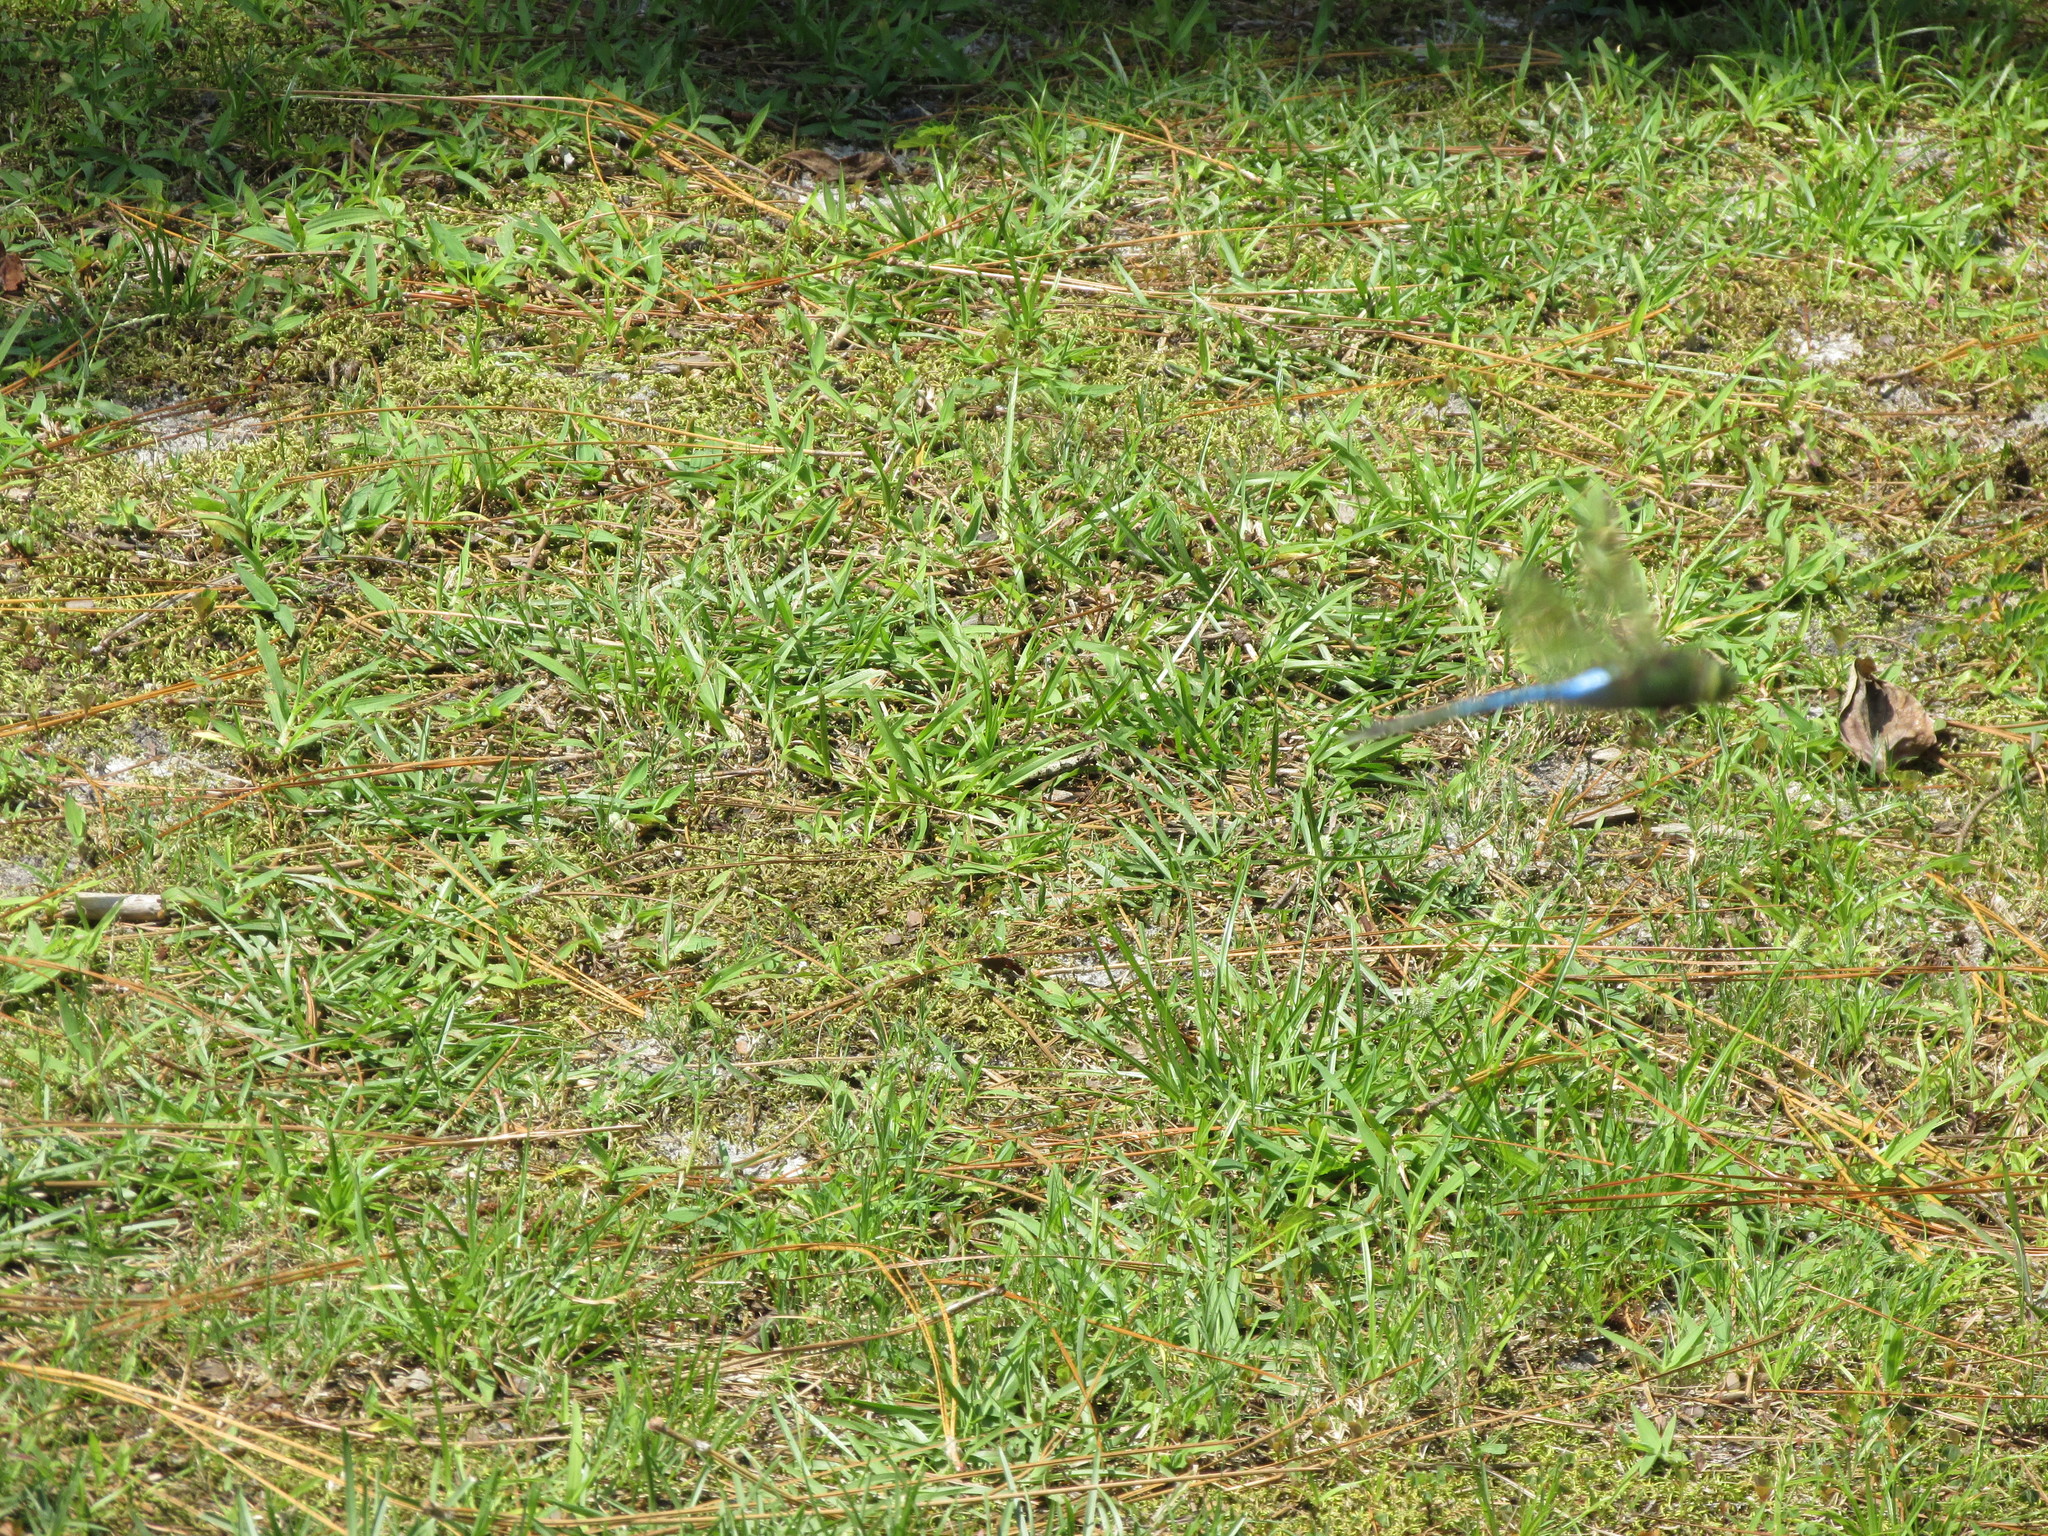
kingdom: Animalia
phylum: Arthropoda
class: Insecta
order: Odonata
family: Aeshnidae
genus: Anax
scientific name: Anax junius
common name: Common green darner
